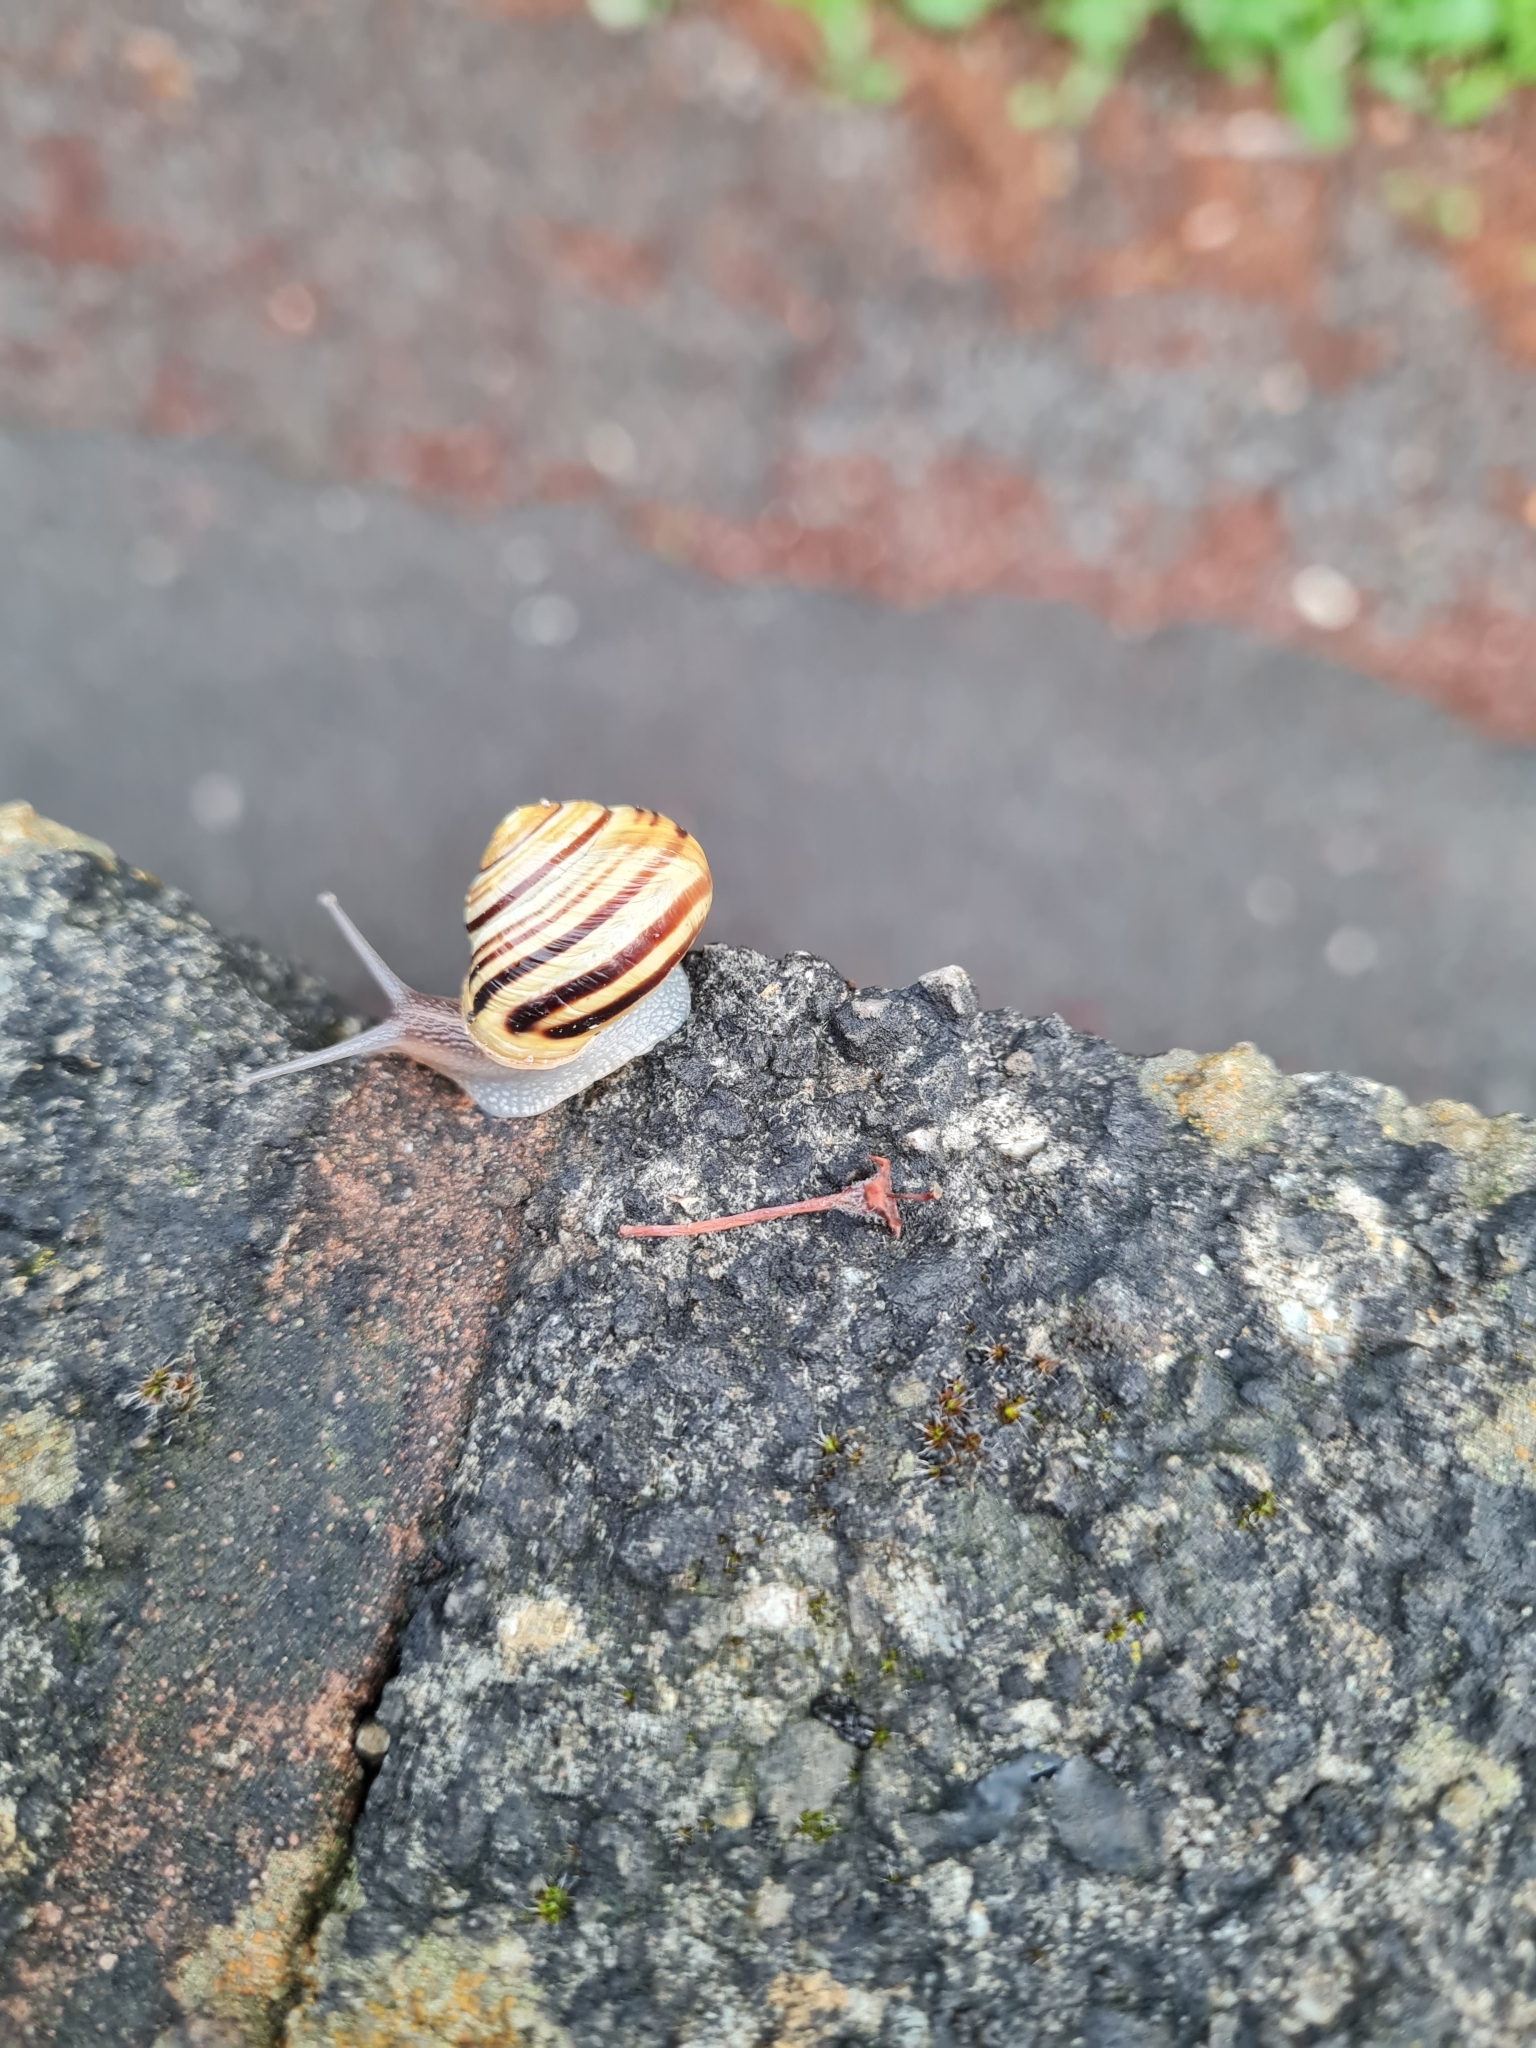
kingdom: Animalia
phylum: Mollusca
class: Gastropoda
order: Stylommatophora
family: Helicidae
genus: Cepaea
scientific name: Cepaea hortensis
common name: White-lip gardensnail
